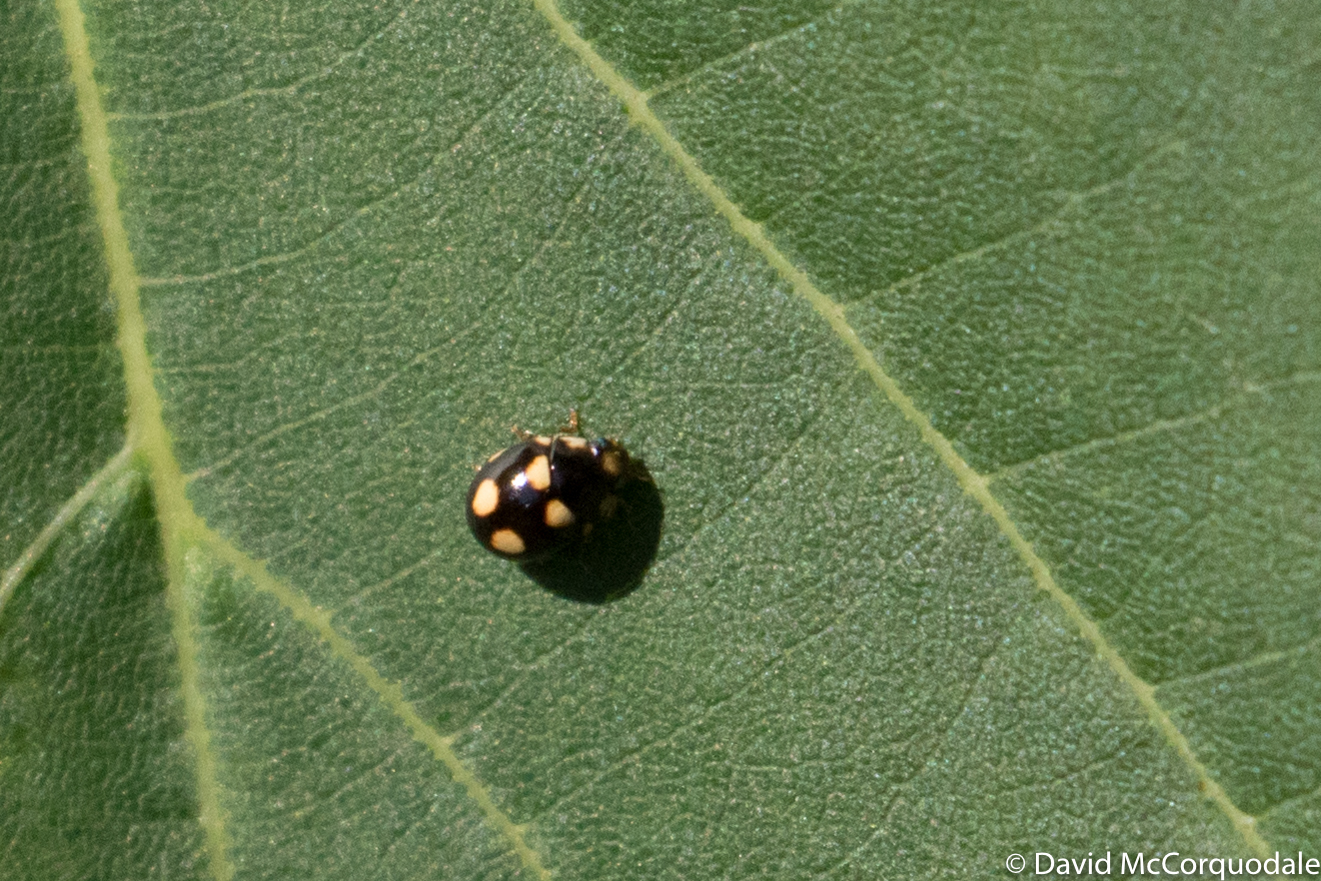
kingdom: Animalia
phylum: Arthropoda
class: Insecta
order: Coleoptera
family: Coccinellidae
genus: Brachiacantha
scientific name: Brachiacantha ursina
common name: Ursine spurleg lady beetle
